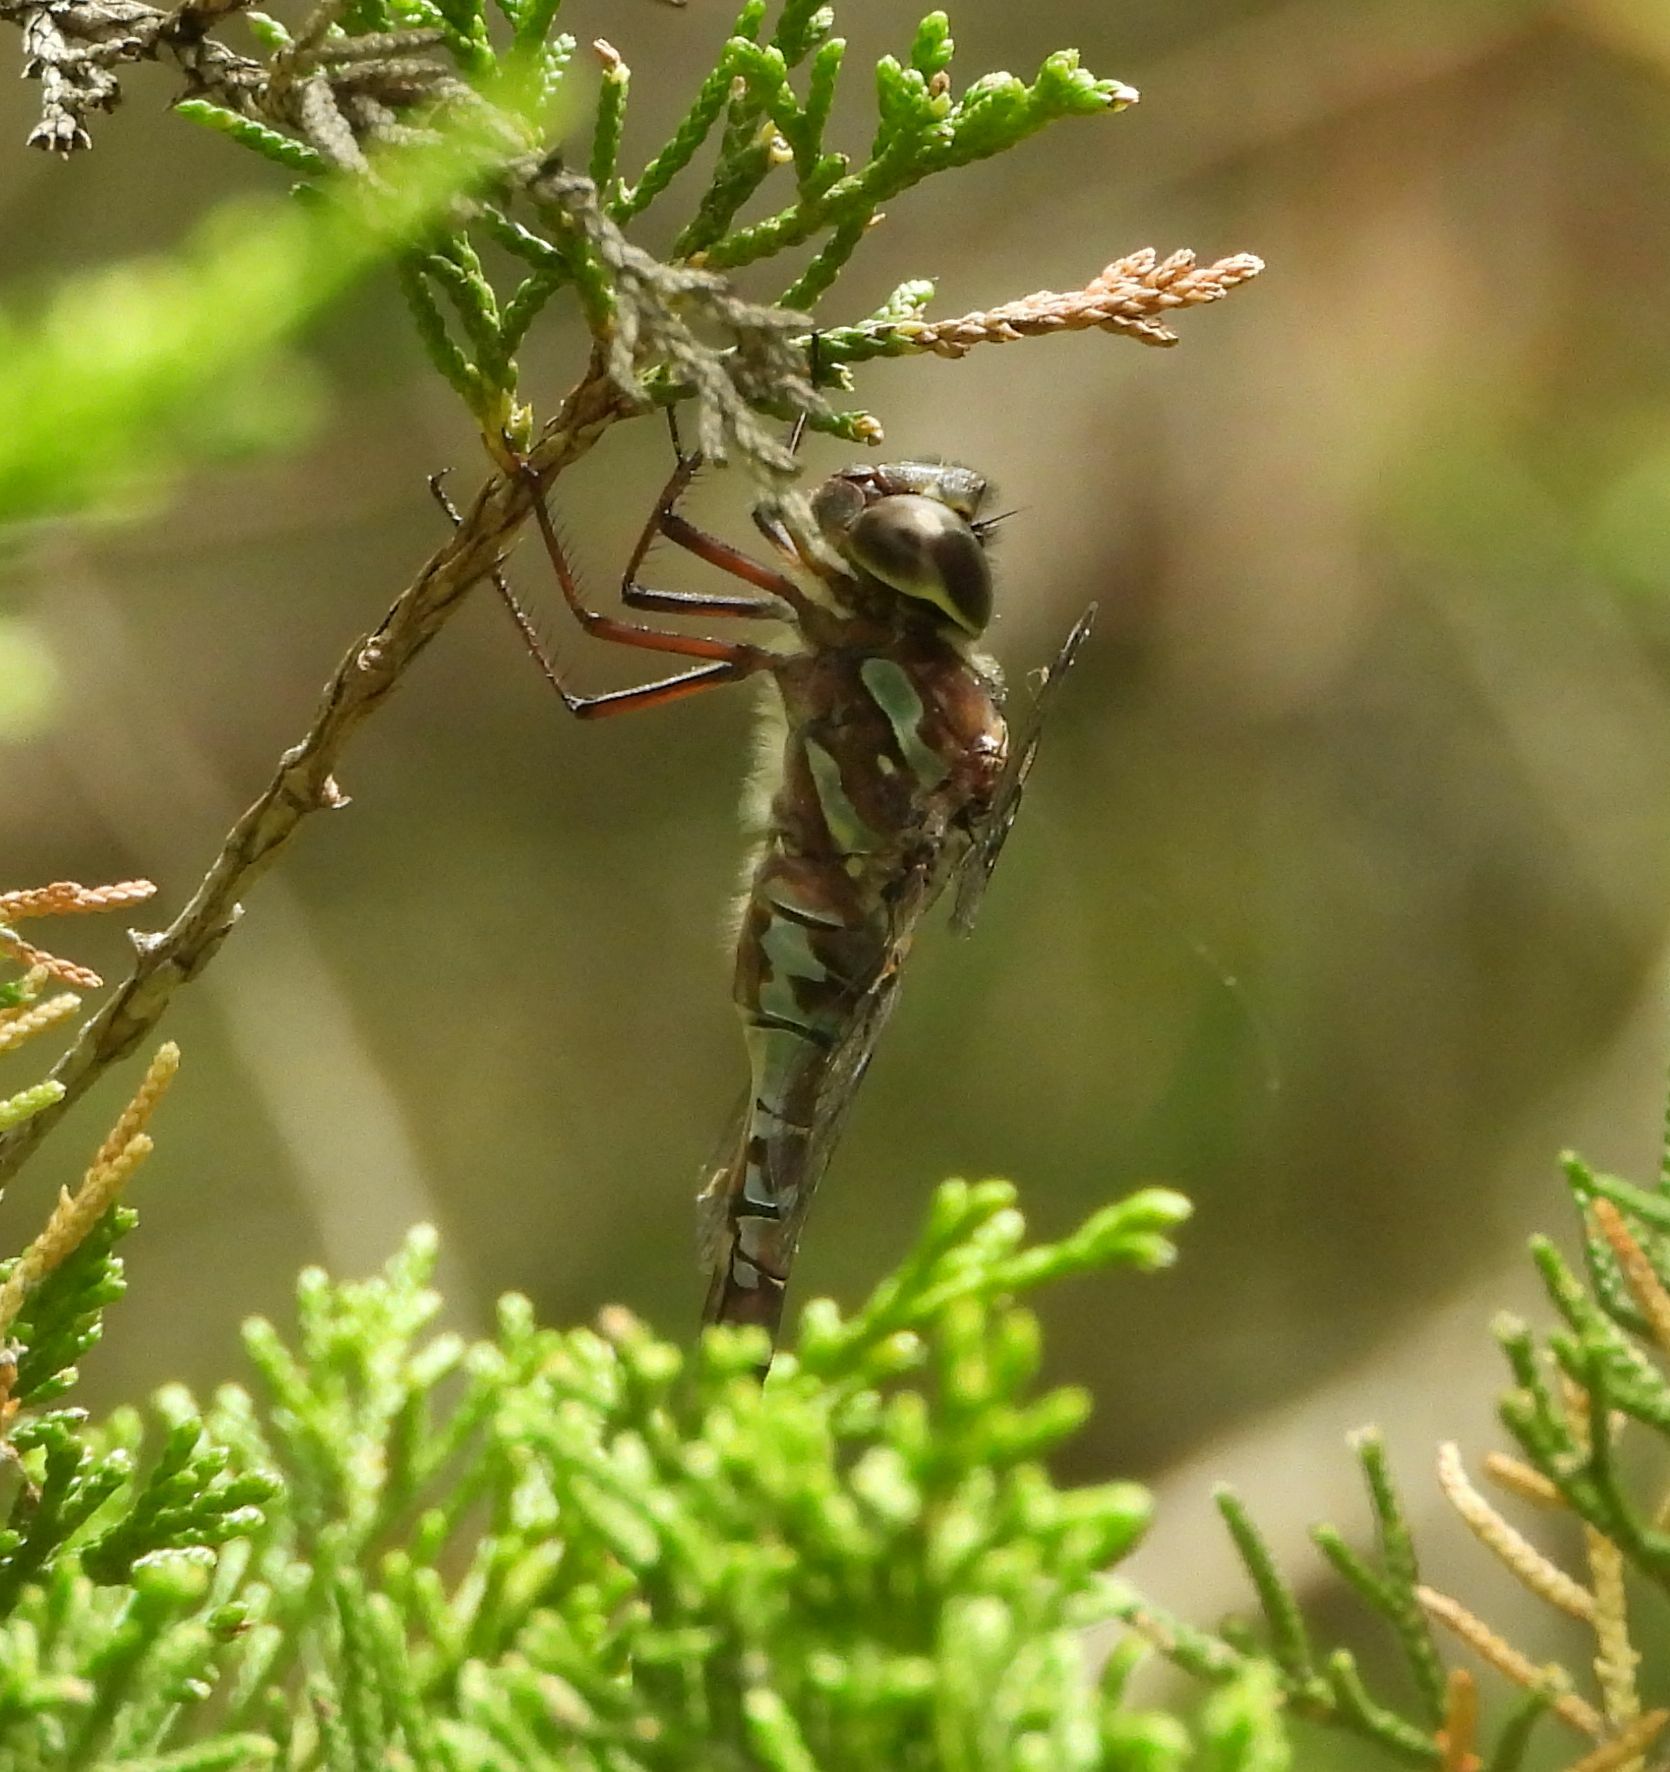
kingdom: Animalia
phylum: Arthropoda
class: Insecta
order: Odonata
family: Aeshnidae
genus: Aeshna
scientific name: Aeshna canadensis
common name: Canada darner
